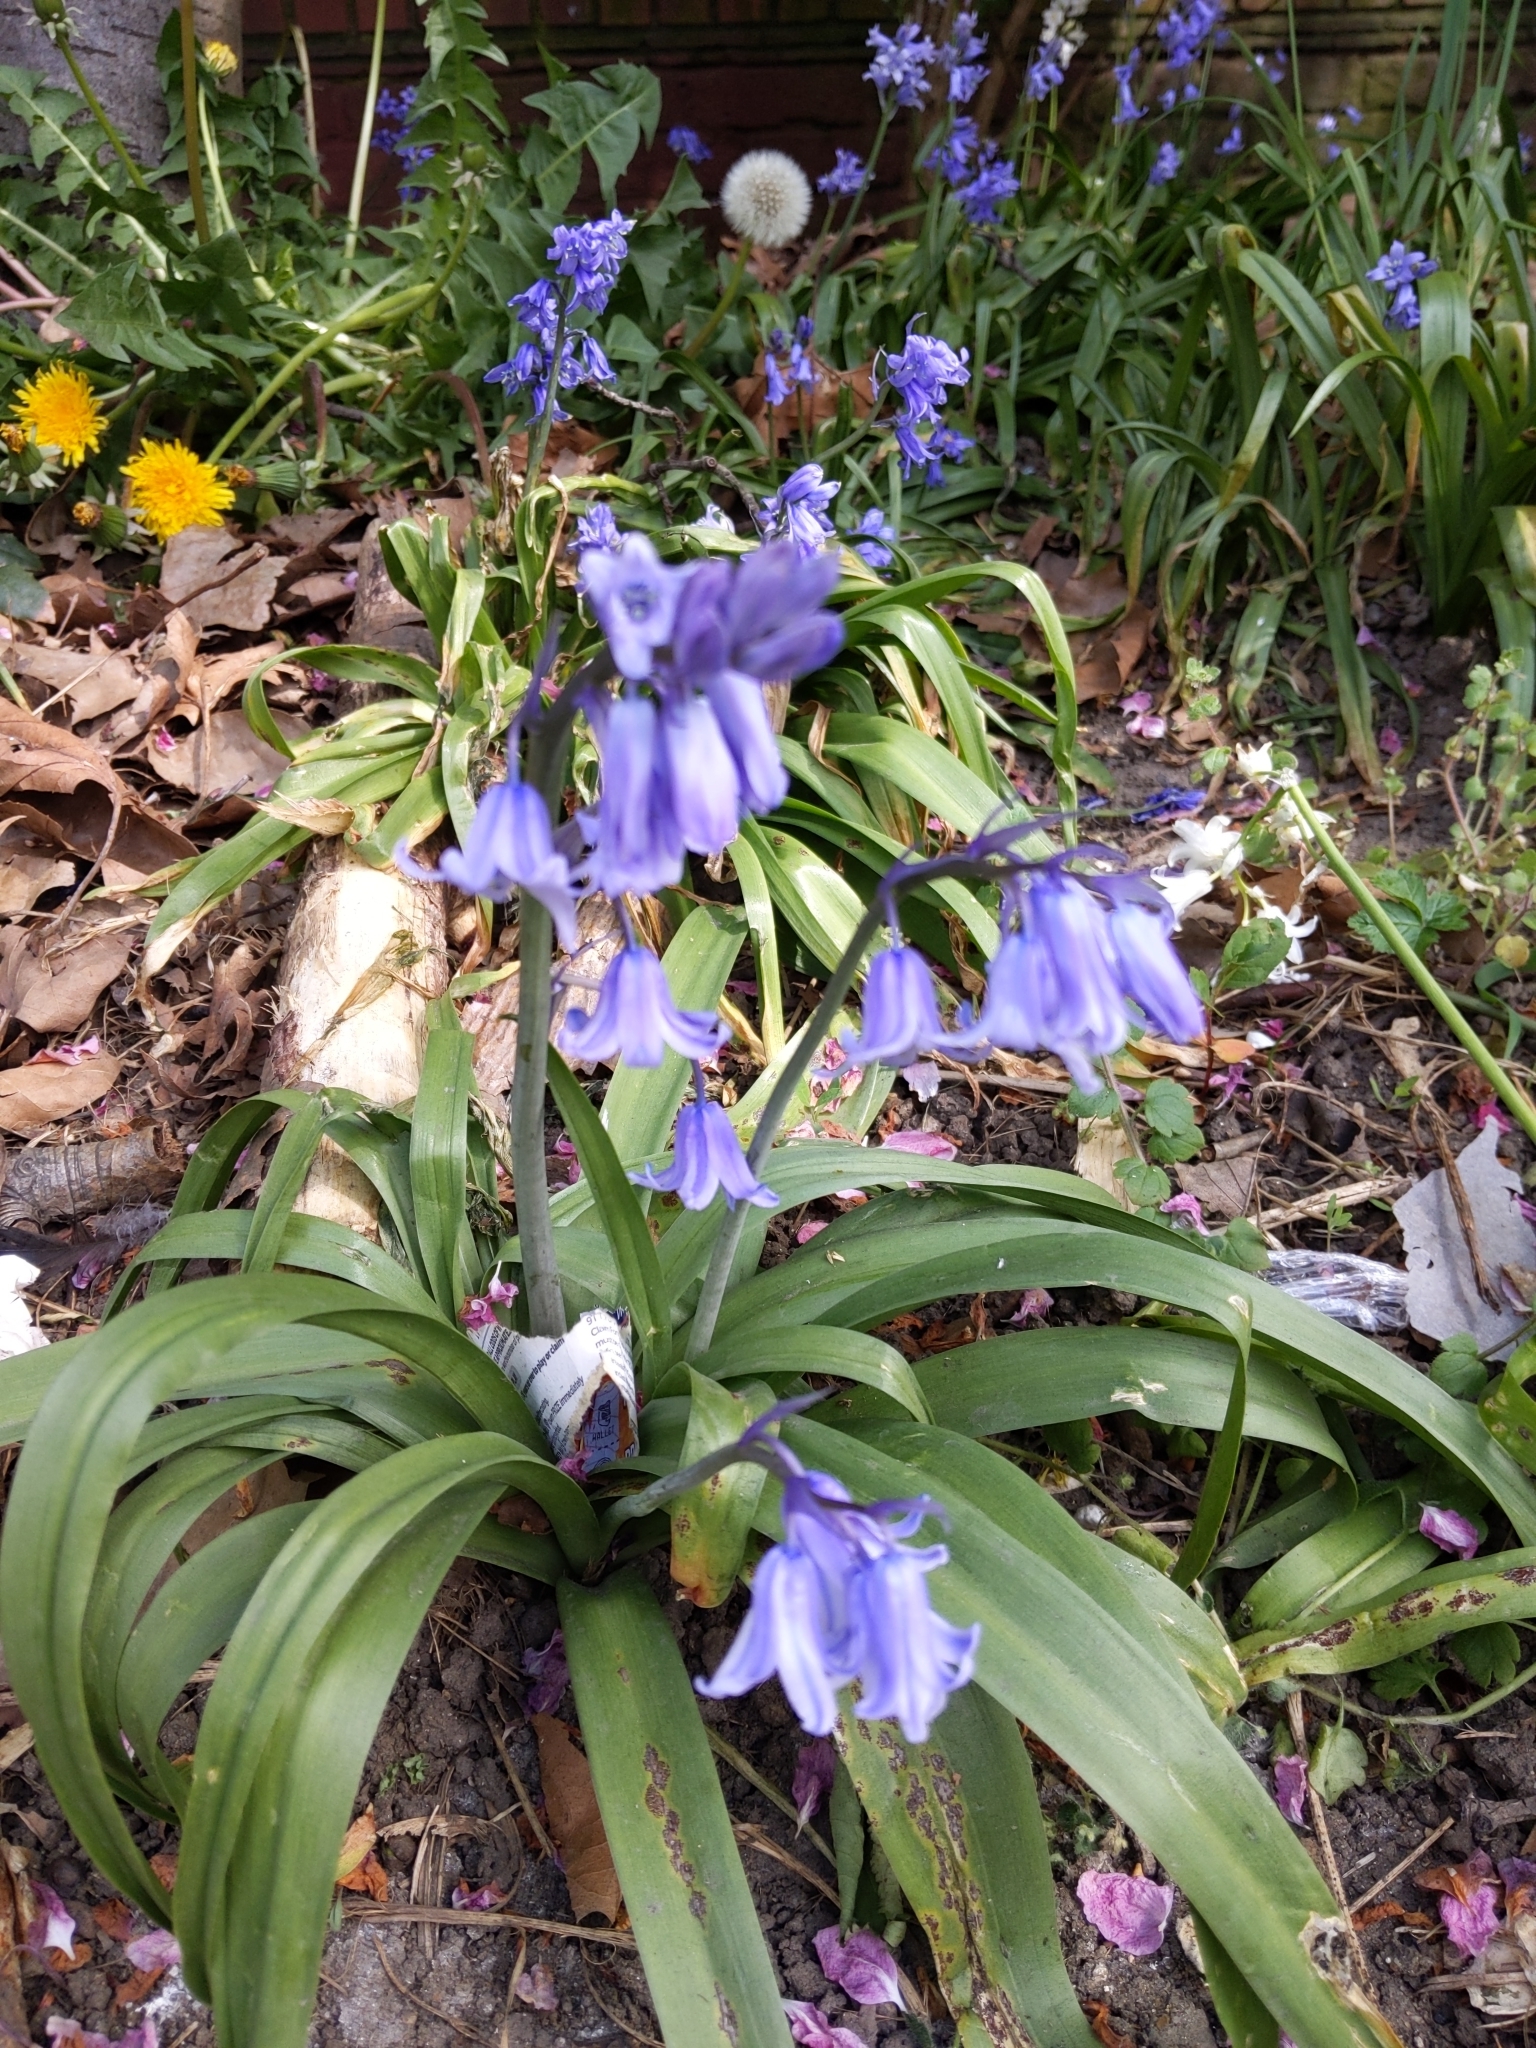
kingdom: Plantae
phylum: Tracheophyta
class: Liliopsida
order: Asparagales
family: Asparagaceae
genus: Hyacinthoides
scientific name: Hyacinthoides massartiana
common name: Hyacinthoides
